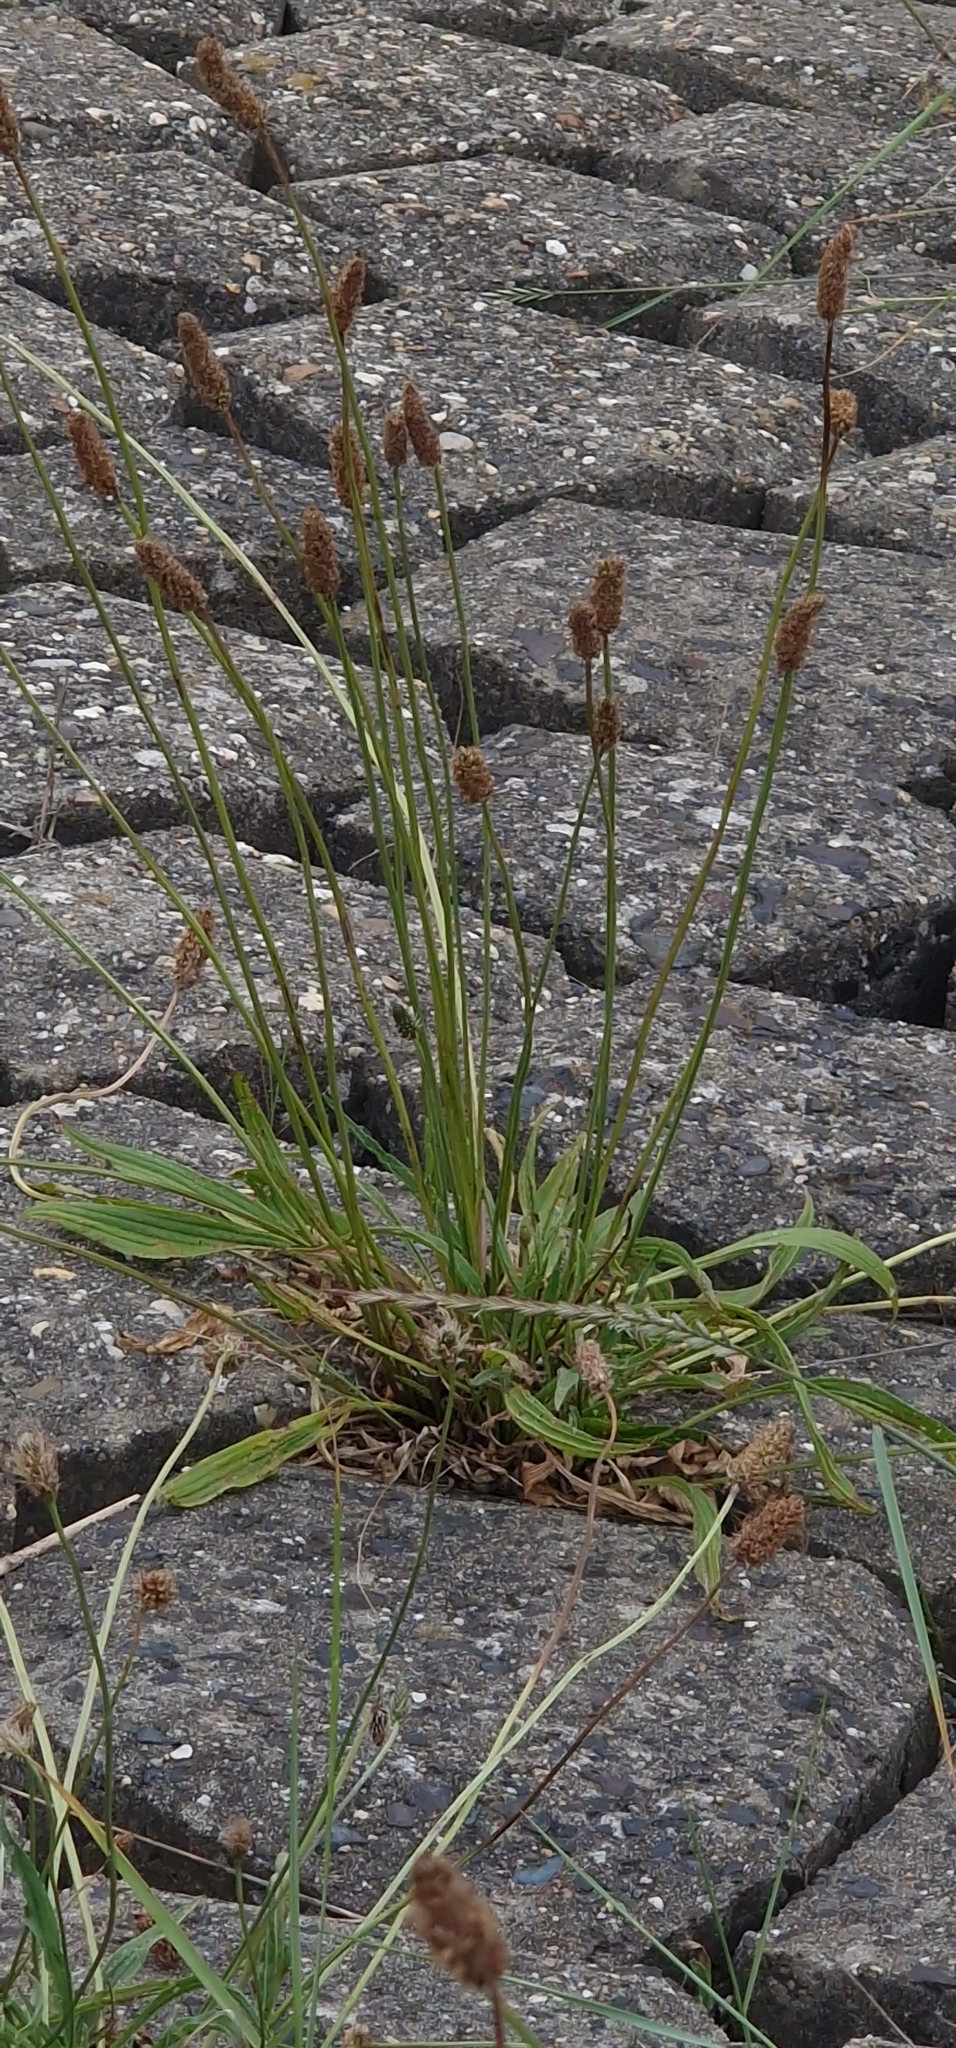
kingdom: Plantae
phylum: Tracheophyta
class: Magnoliopsida
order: Lamiales
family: Plantaginaceae
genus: Plantago
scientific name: Plantago lanceolata
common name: Ribwort plantain
